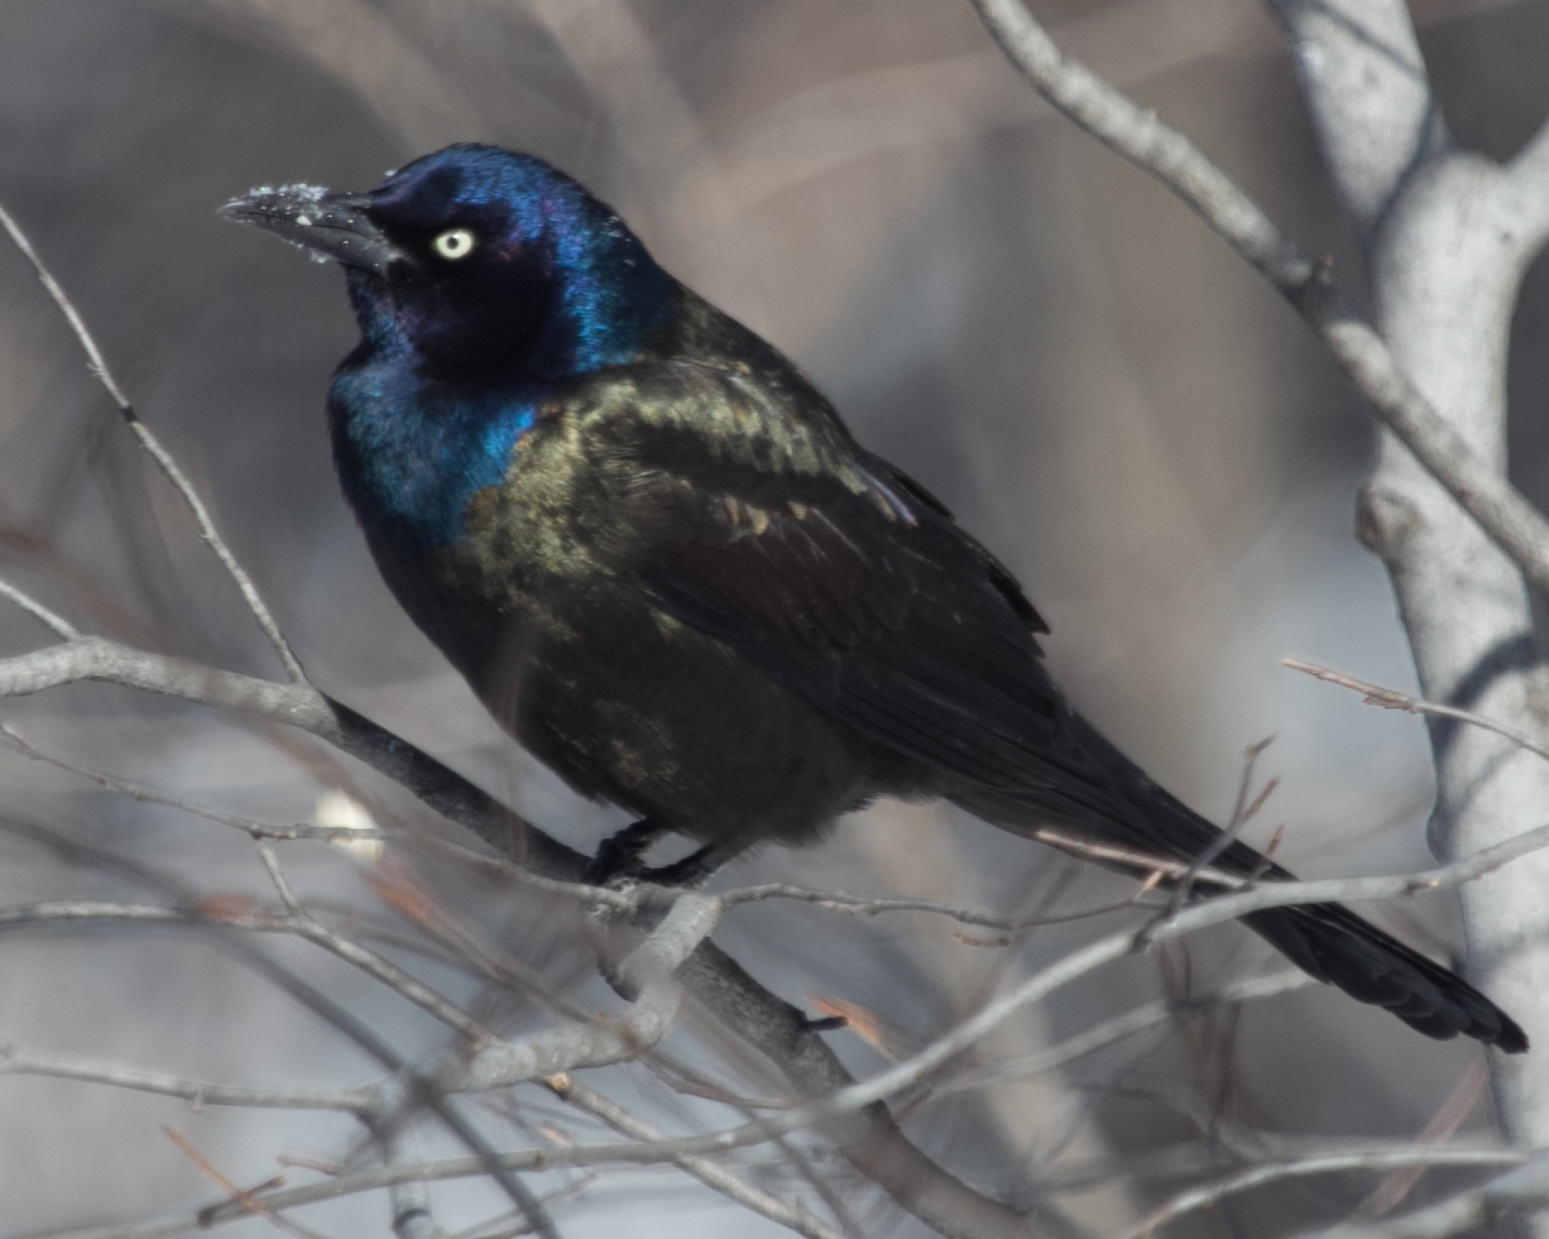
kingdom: Animalia
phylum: Chordata
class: Aves
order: Passeriformes
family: Icteridae
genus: Quiscalus
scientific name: Quiscalus quiscula
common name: Common grackle
